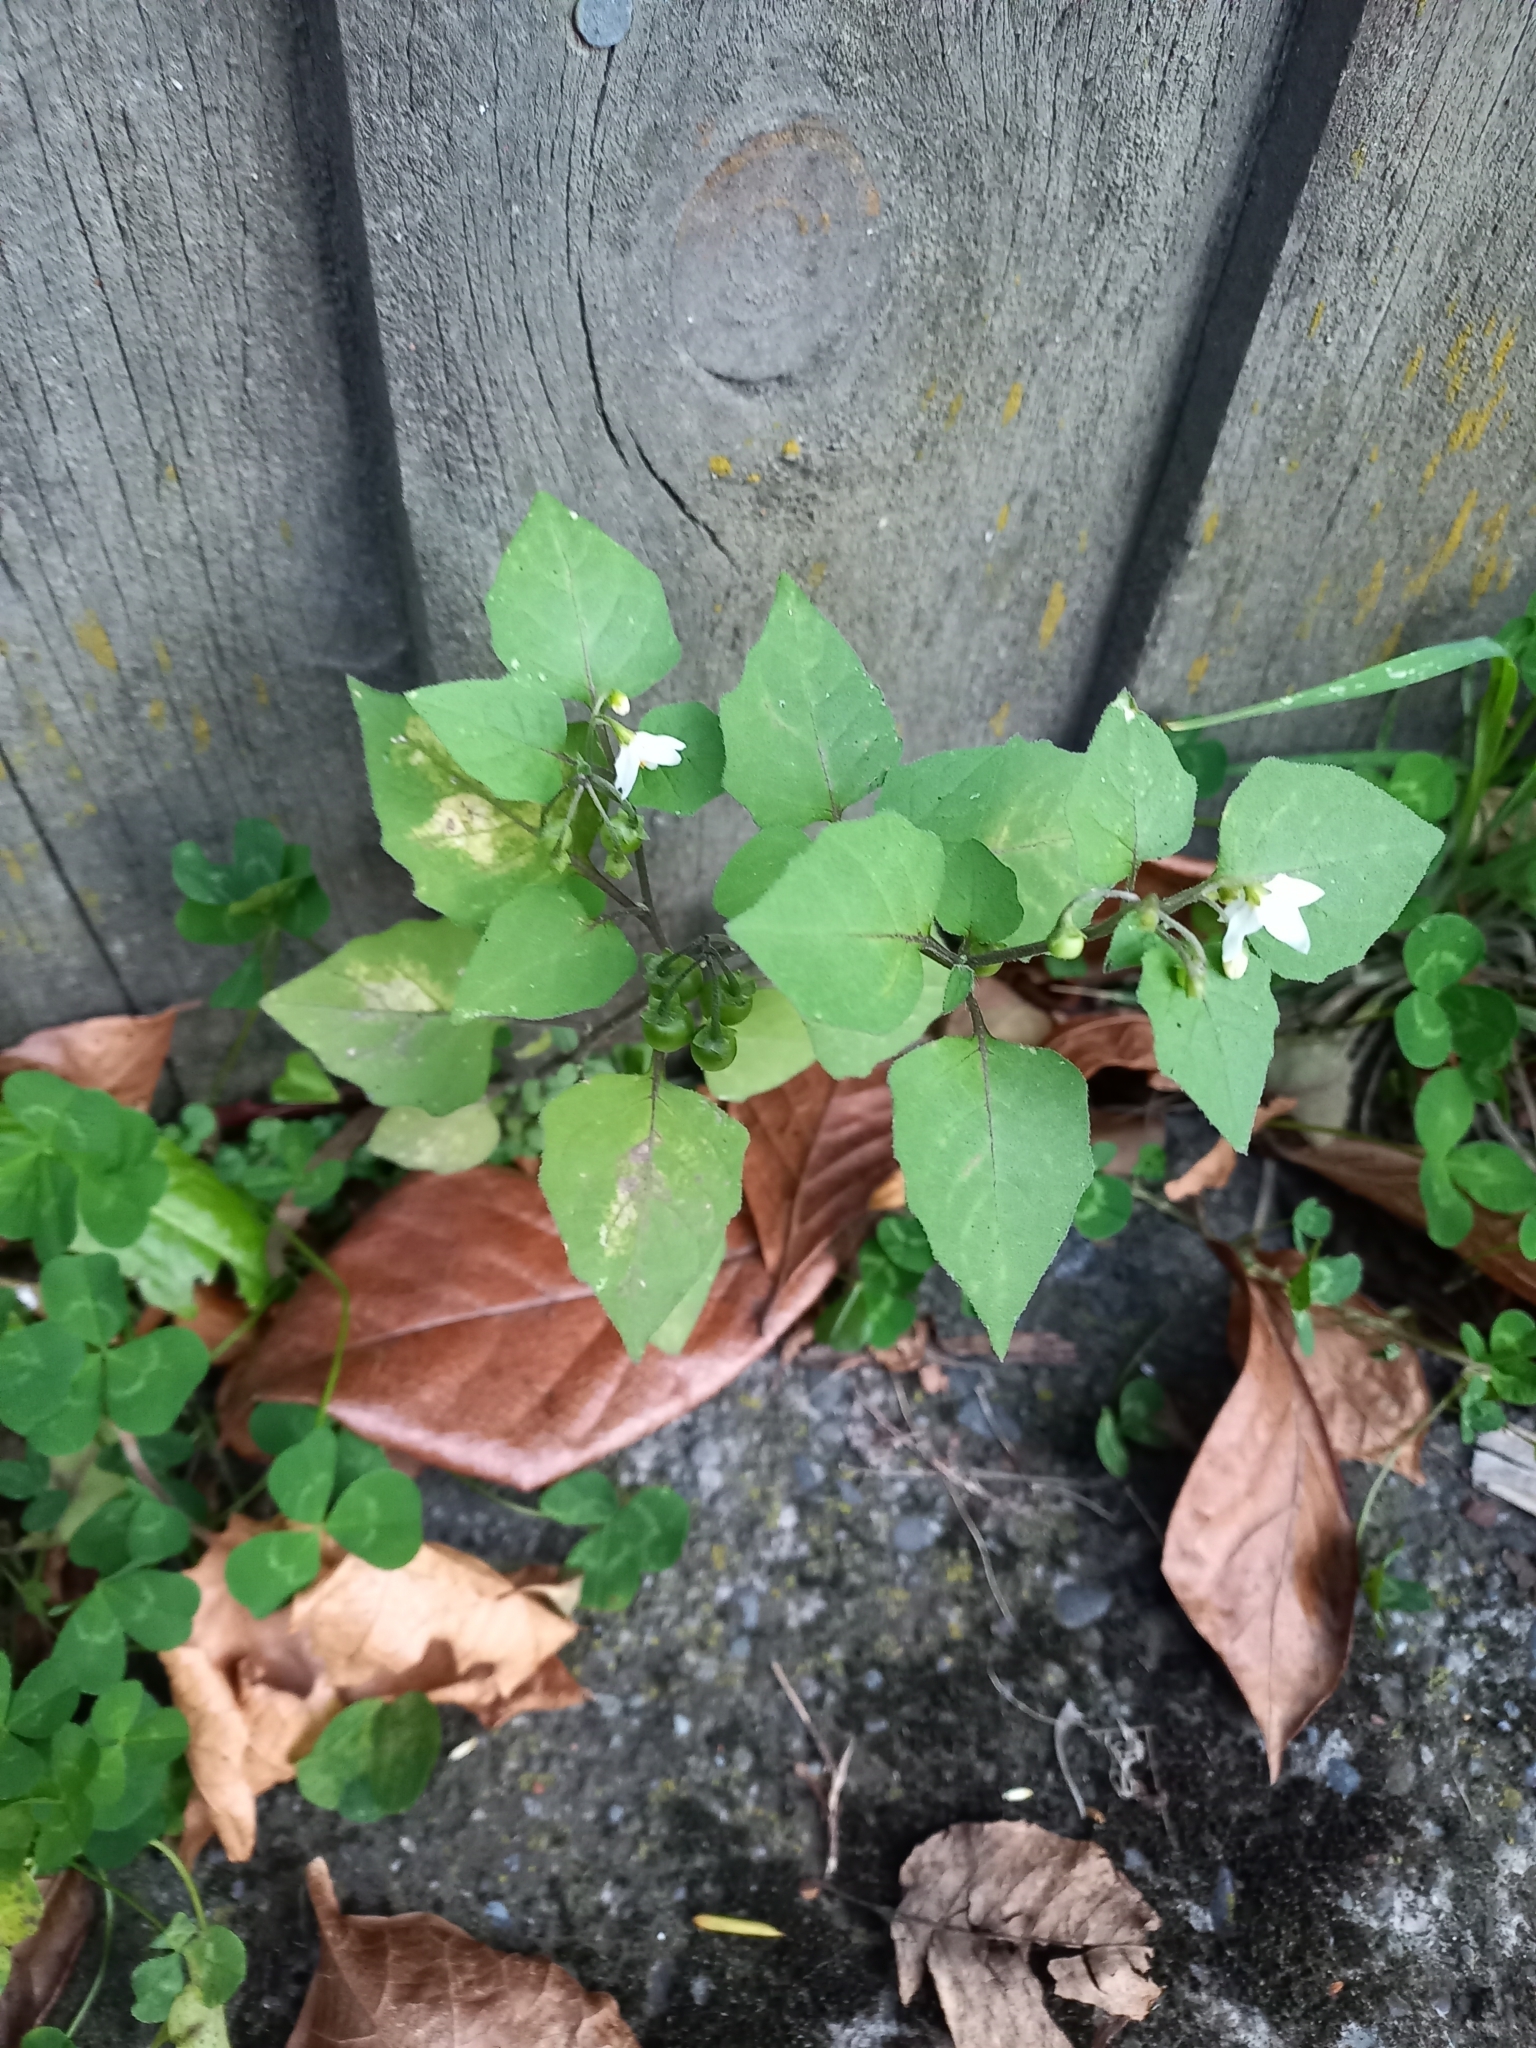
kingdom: Plantae
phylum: Tracheophyta
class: Magnoliopsida
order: Solanales
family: Solanaceae
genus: Solanum
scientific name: Solanum nigrum
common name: Black nightshade
